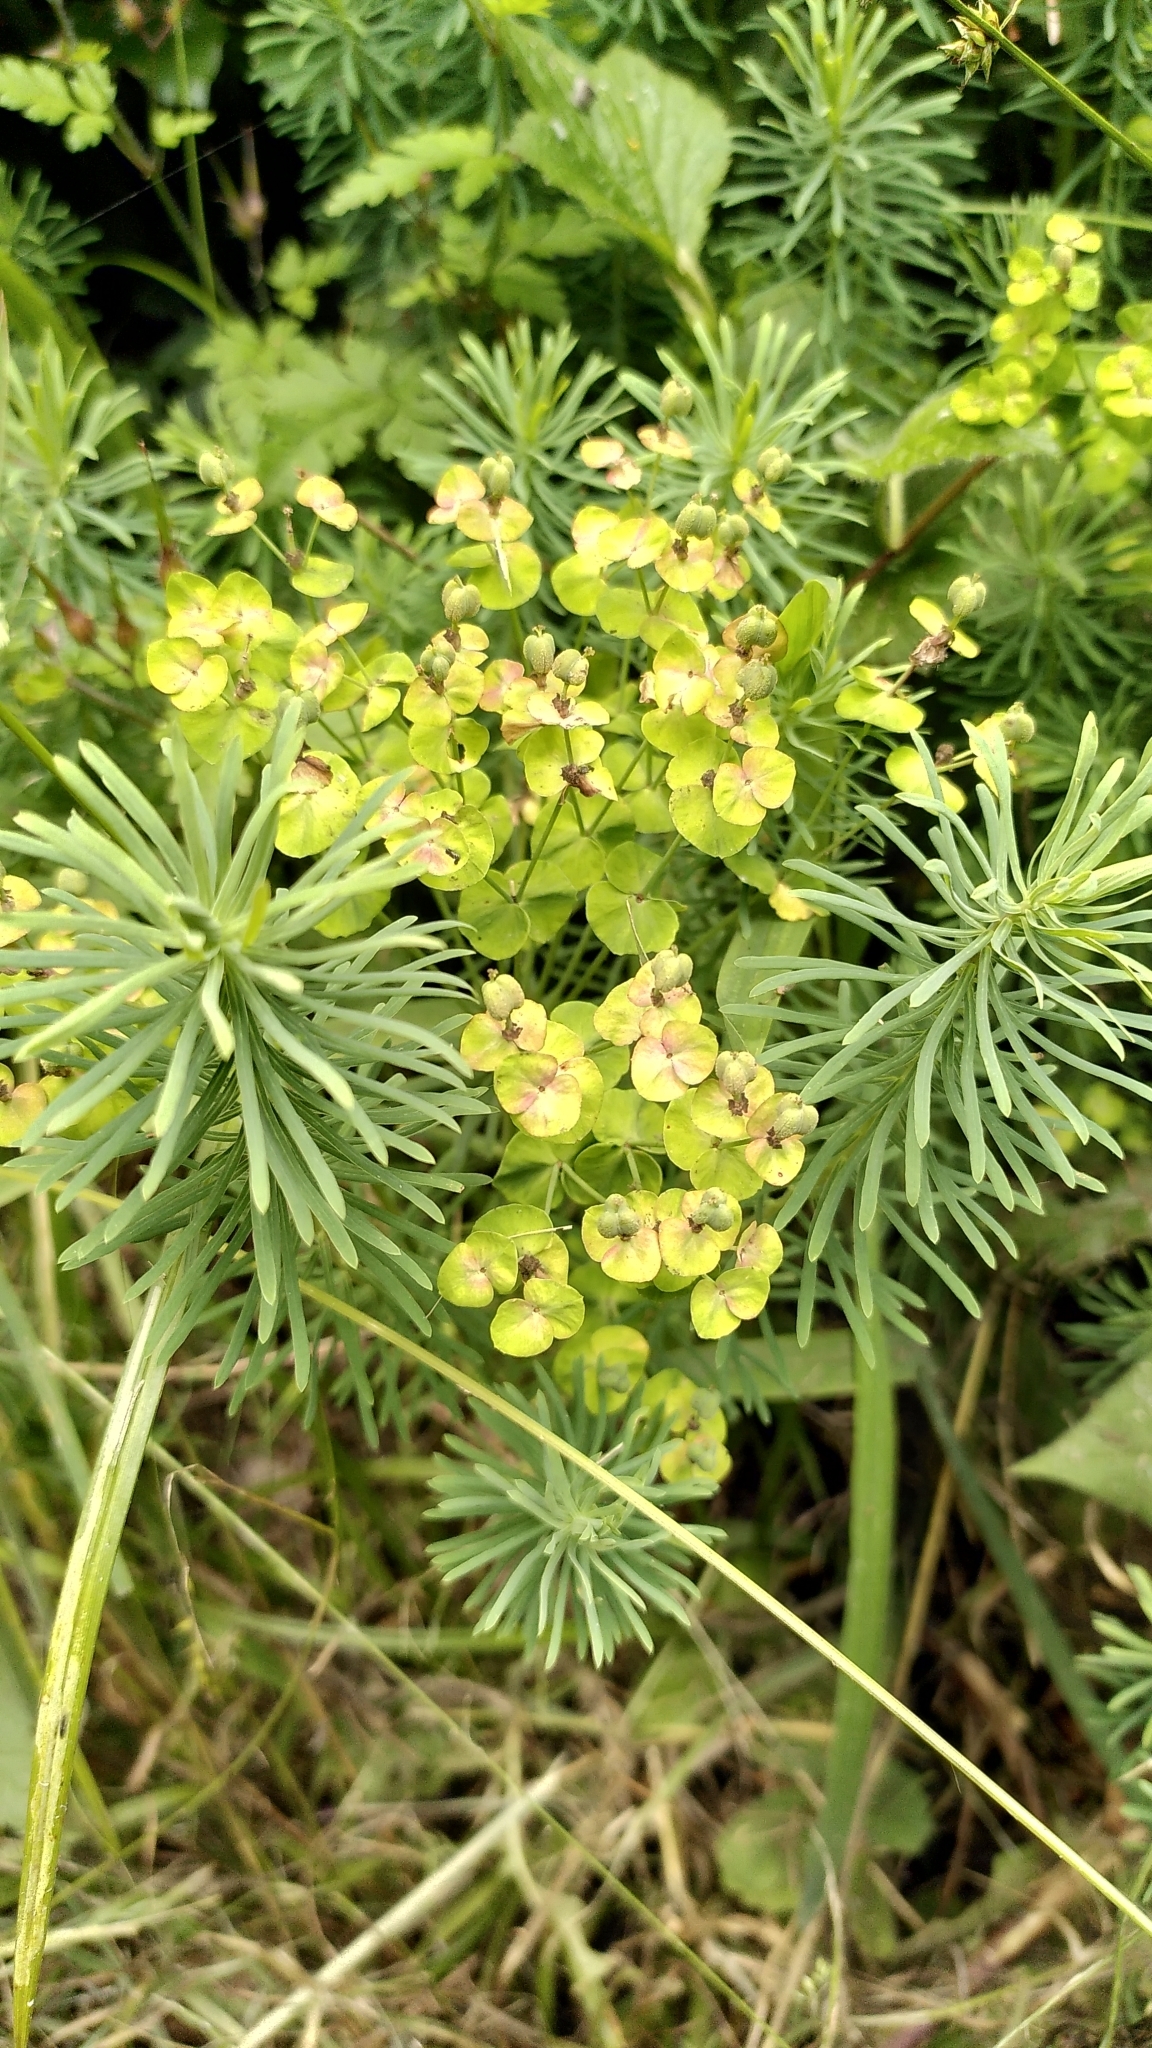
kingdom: Plantae
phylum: Tracheophyta
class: Magnoliopsida
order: Malpighiales
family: Euphorbiaceae
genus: Euphorbia
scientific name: Euphorbia cyparissias
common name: Cypress spurge
